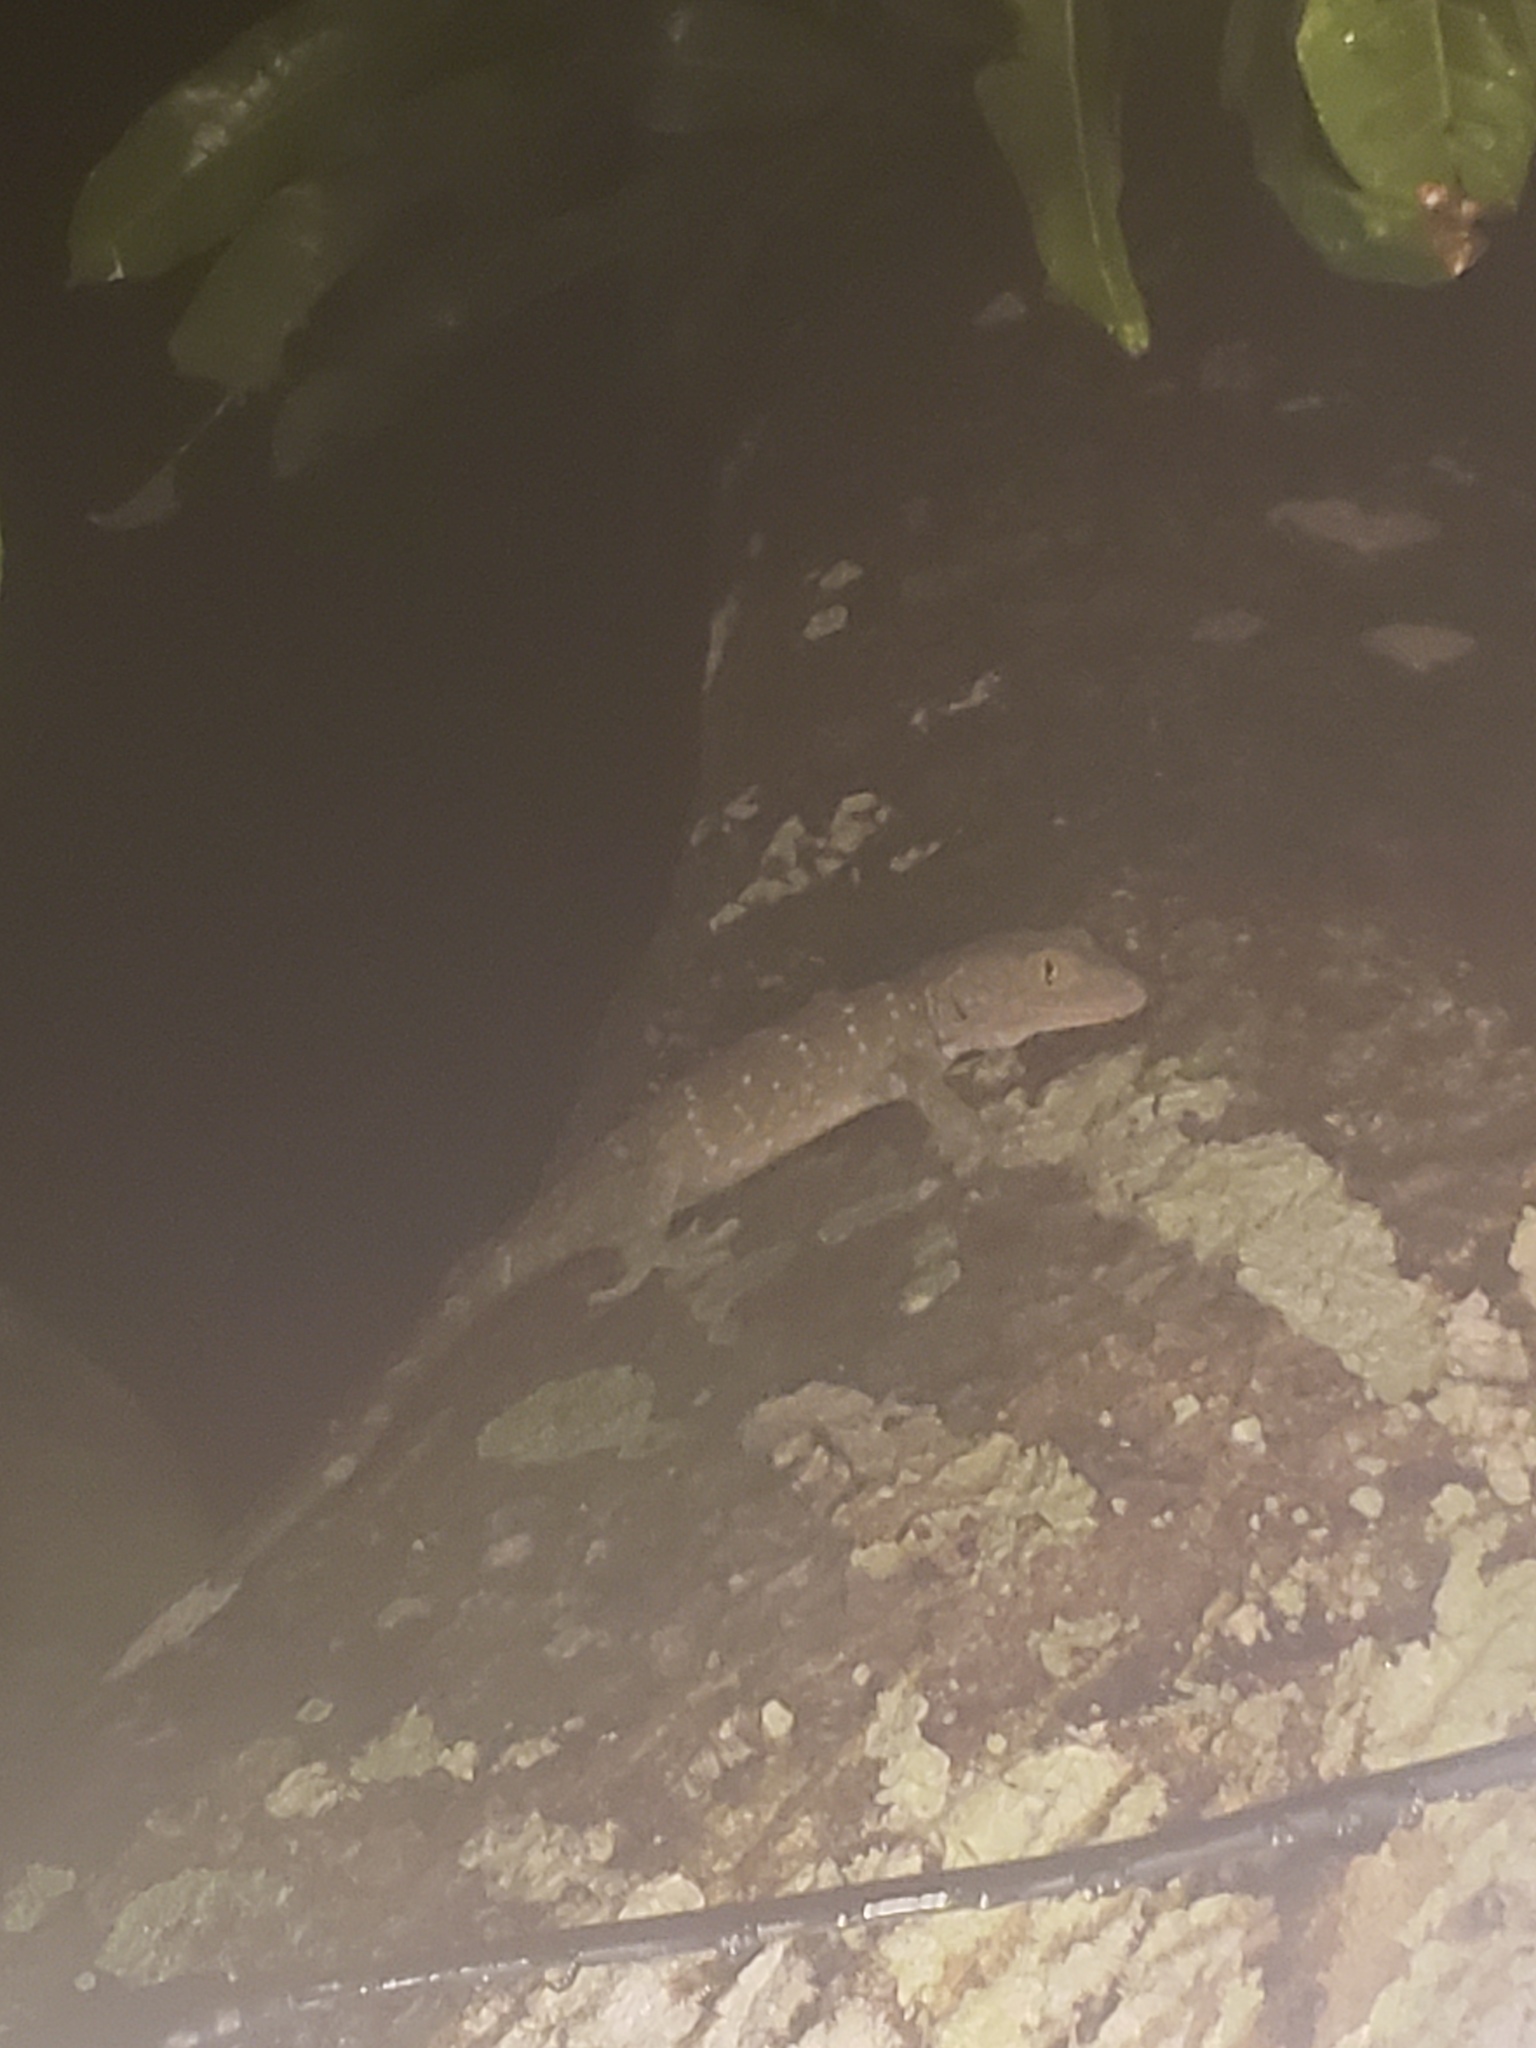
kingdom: Animalia
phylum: Chordata
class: Squamata
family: Gekkonidae
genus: Gekko
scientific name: Gekko gecko
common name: Tokay gecko
